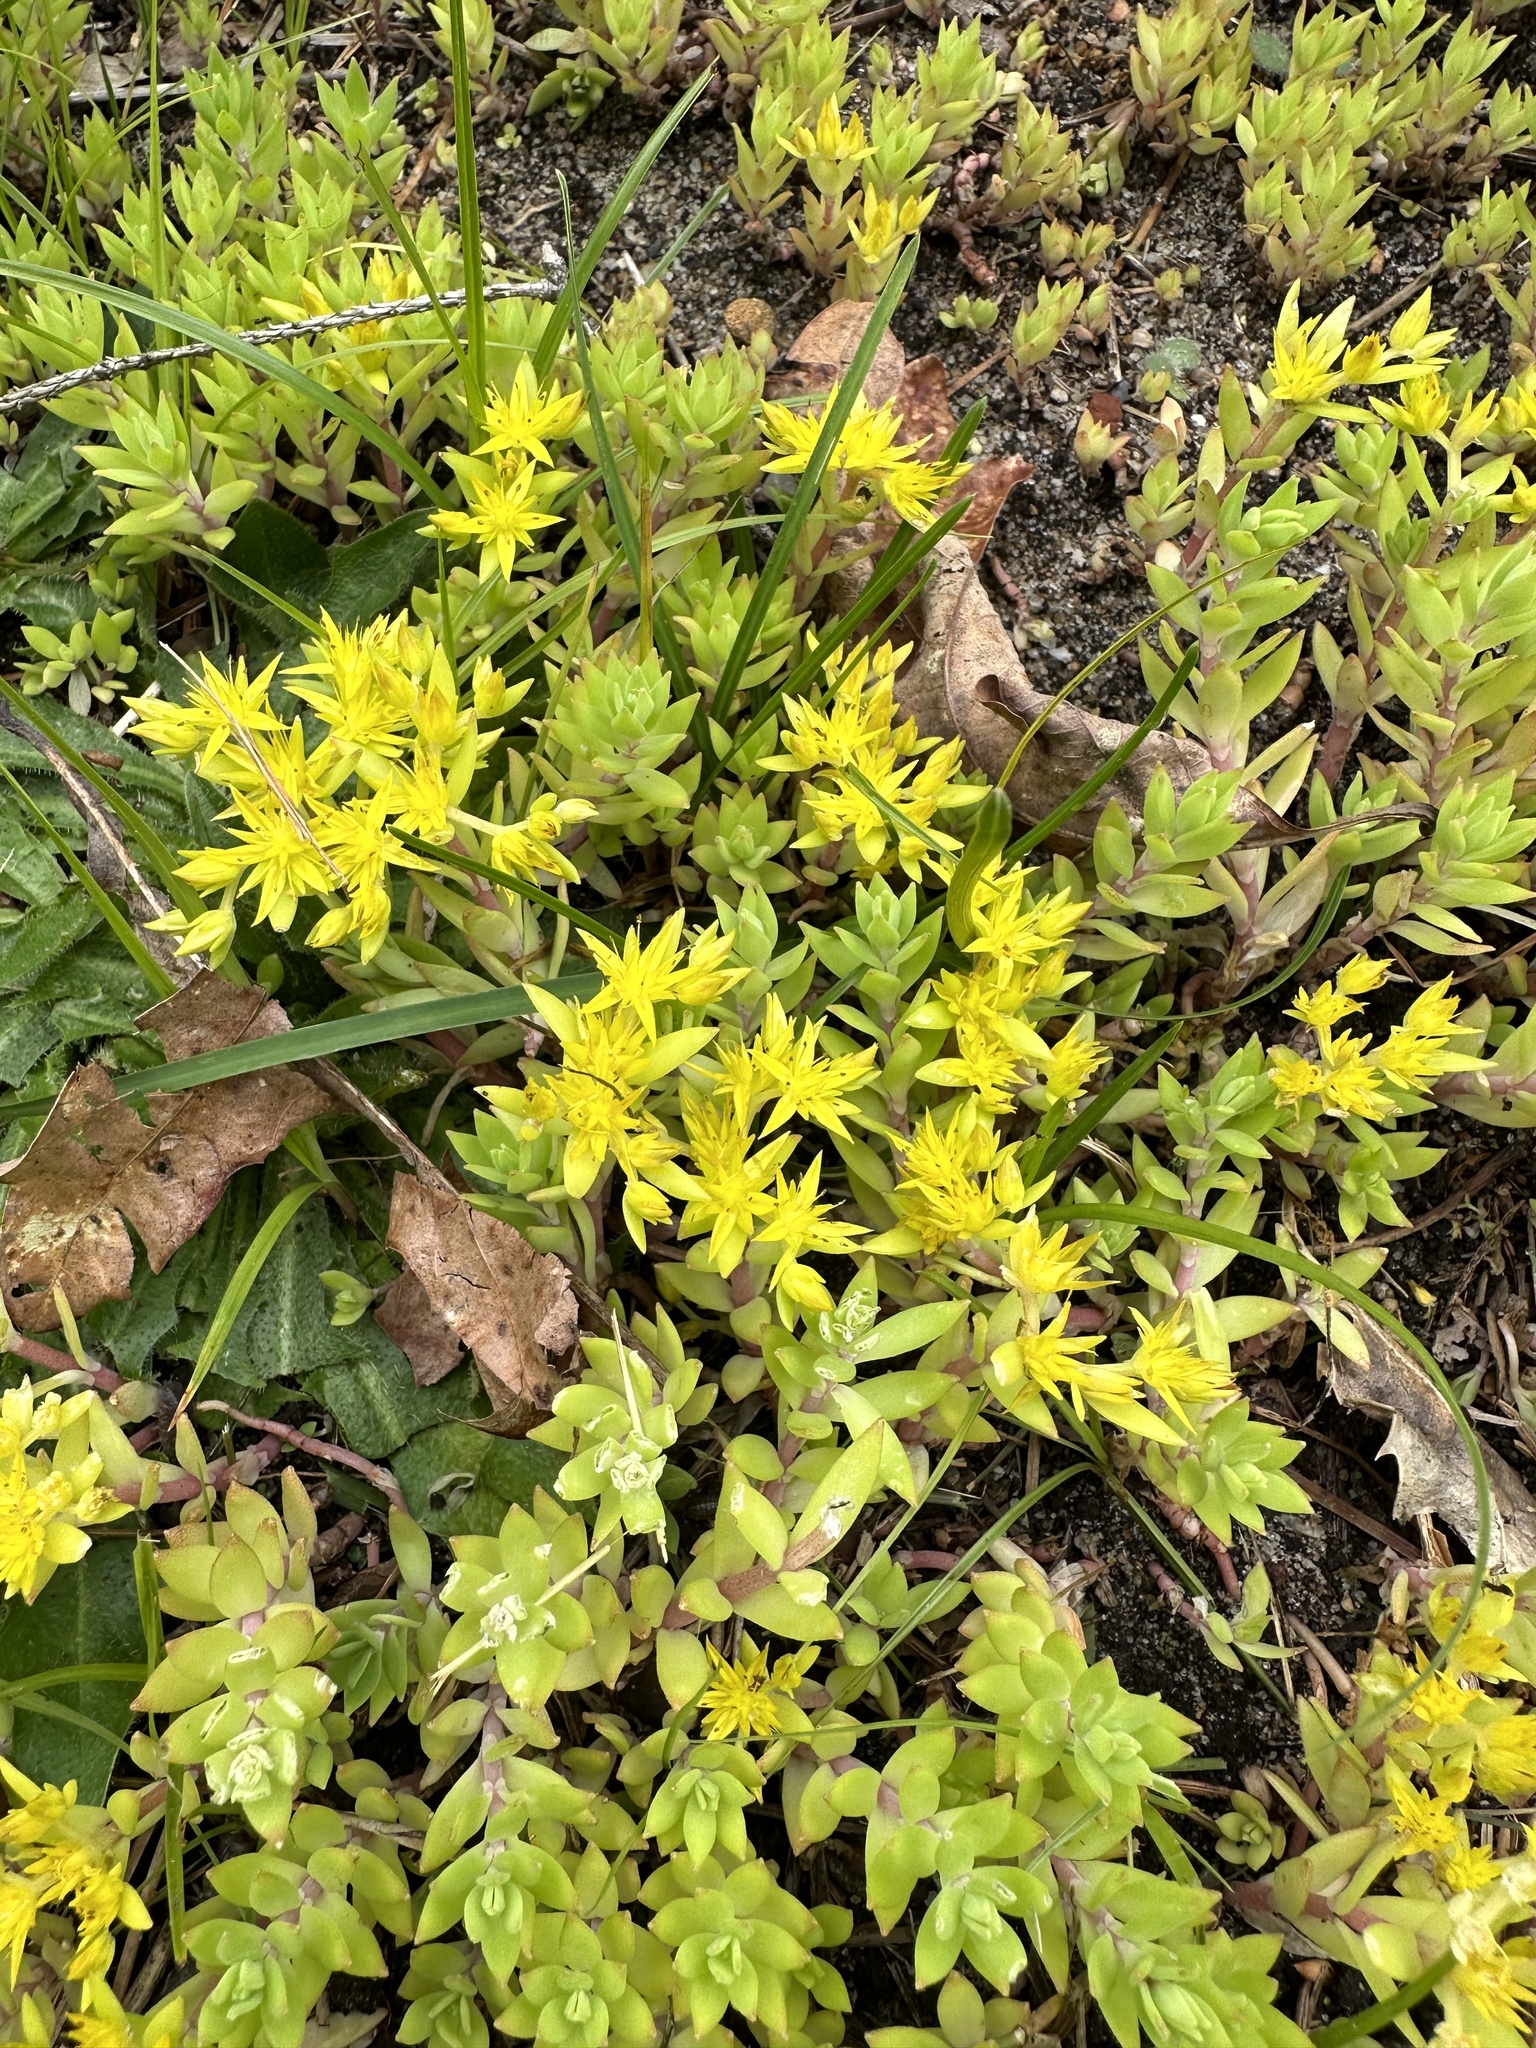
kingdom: Plantae
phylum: Tracheophyta
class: Magnoliopsida
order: Saxifragales
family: Crassulaceae
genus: Sedum
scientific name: Sedum sarmentosum
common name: Stringy stonecrop
